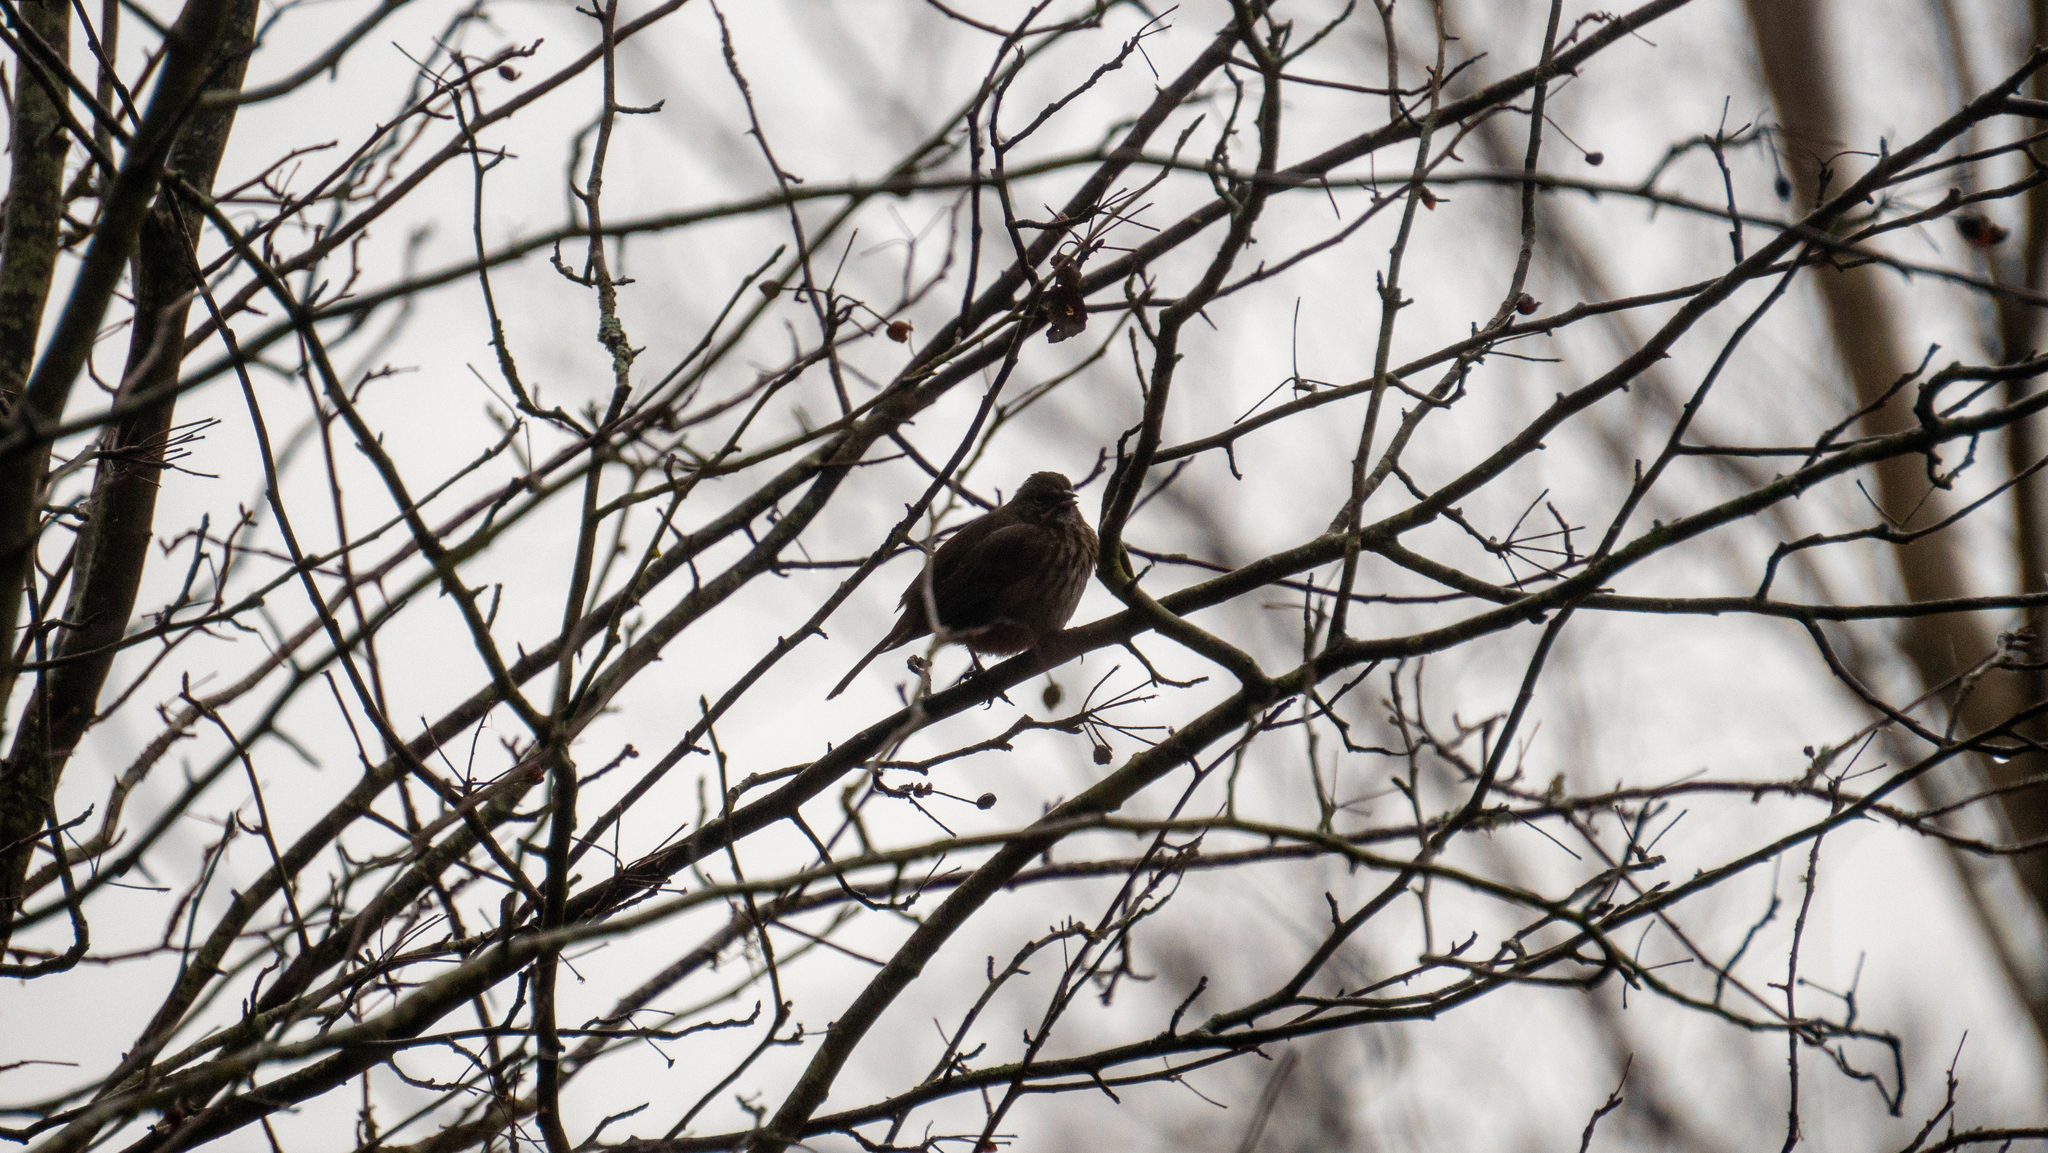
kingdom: Animalia
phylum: Chordata
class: Aves
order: Passeriformes
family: Passerellidae
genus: Melospiza
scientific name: Melospiza melodia
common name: Song sparrow
